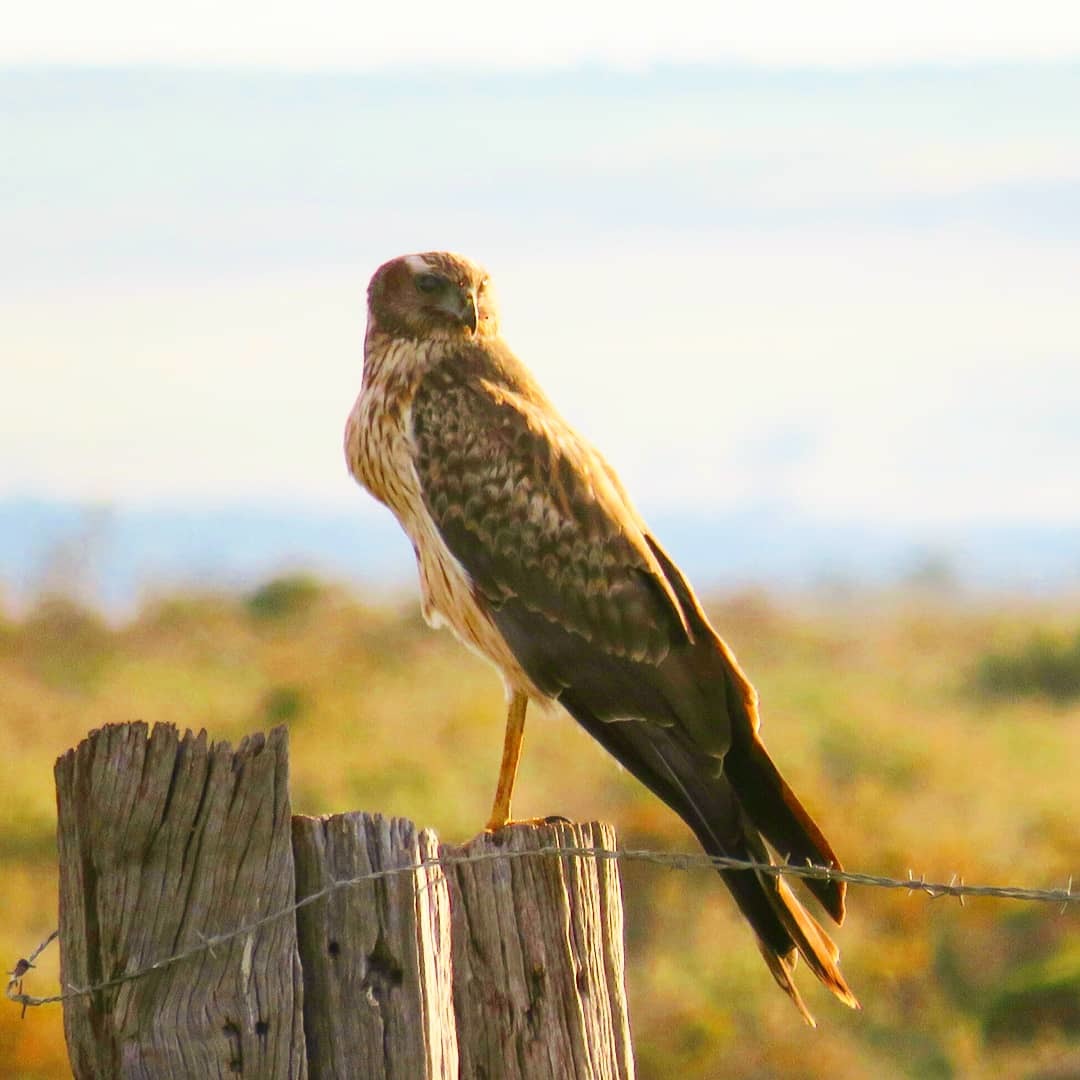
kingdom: Animalia
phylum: Chordata
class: Aves
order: Accipitriformes
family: Accipitridae
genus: Circus
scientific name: Circus approximans
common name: Swamp harrier
